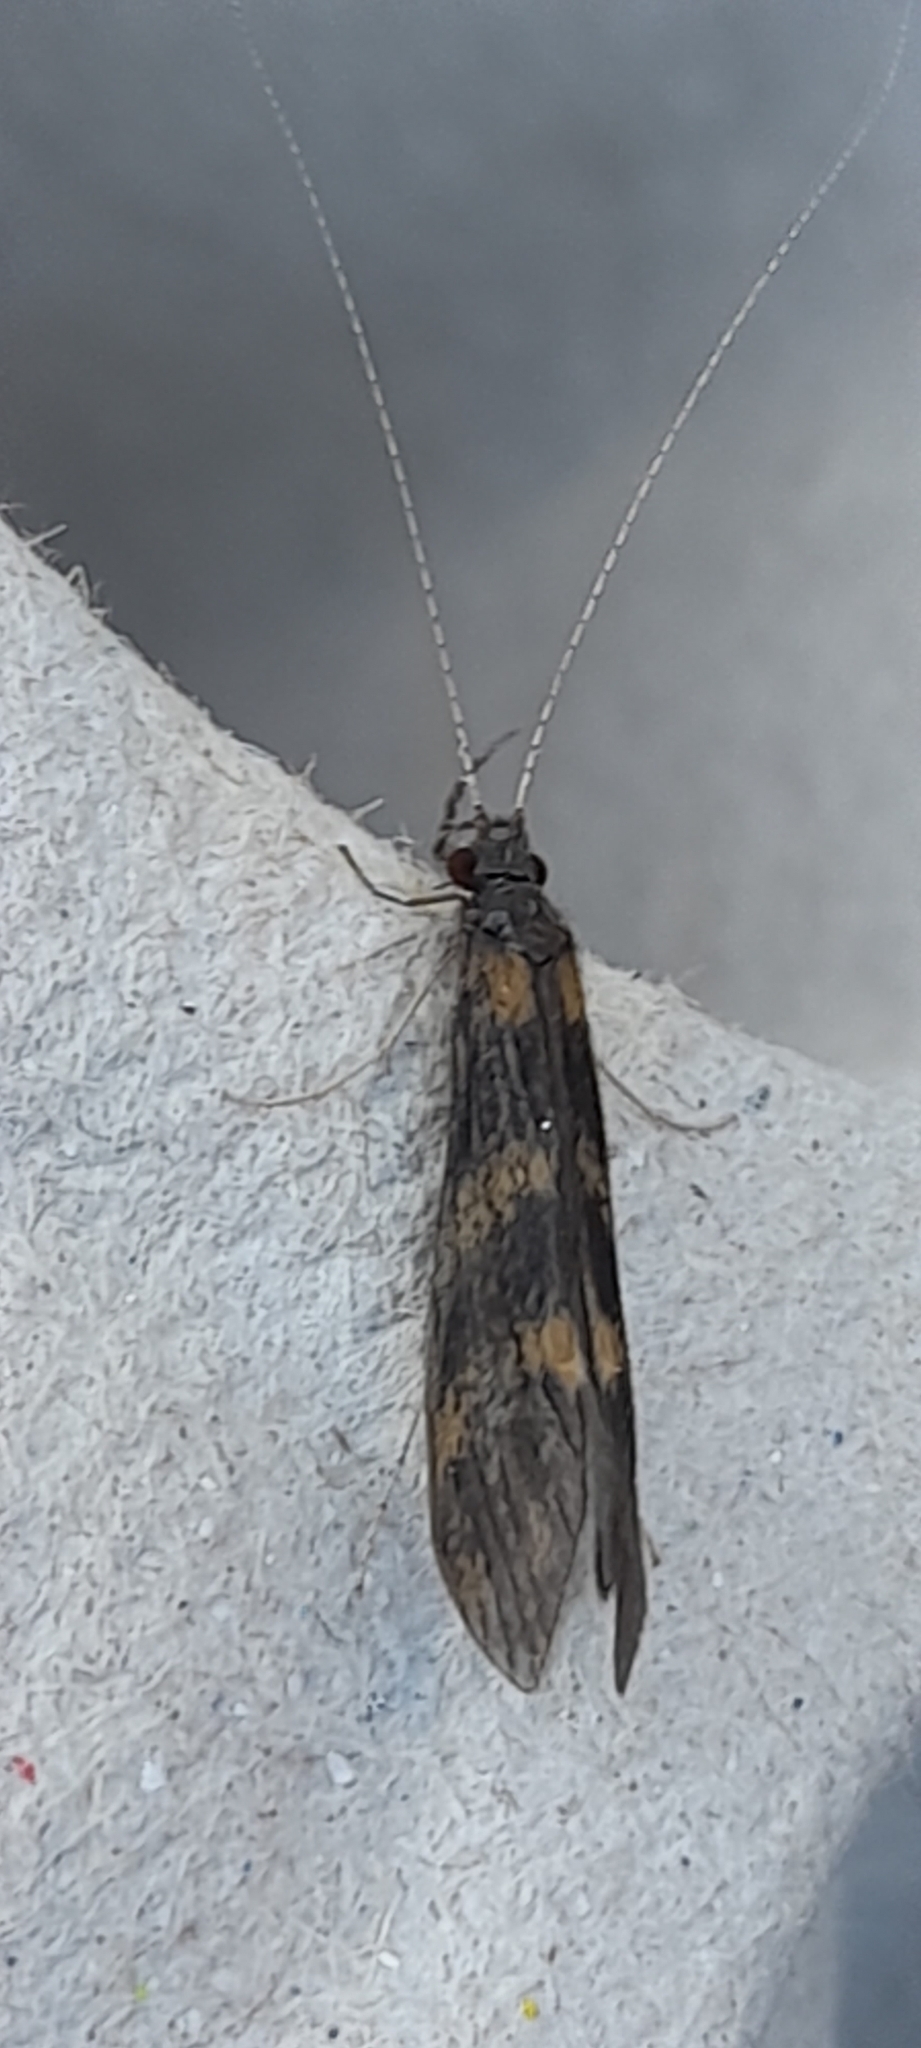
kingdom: Animalia
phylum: Arthropoda
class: Insecta
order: Trichoptera
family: Leptoceridae
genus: Mystacides
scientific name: Mystacides longicornis
